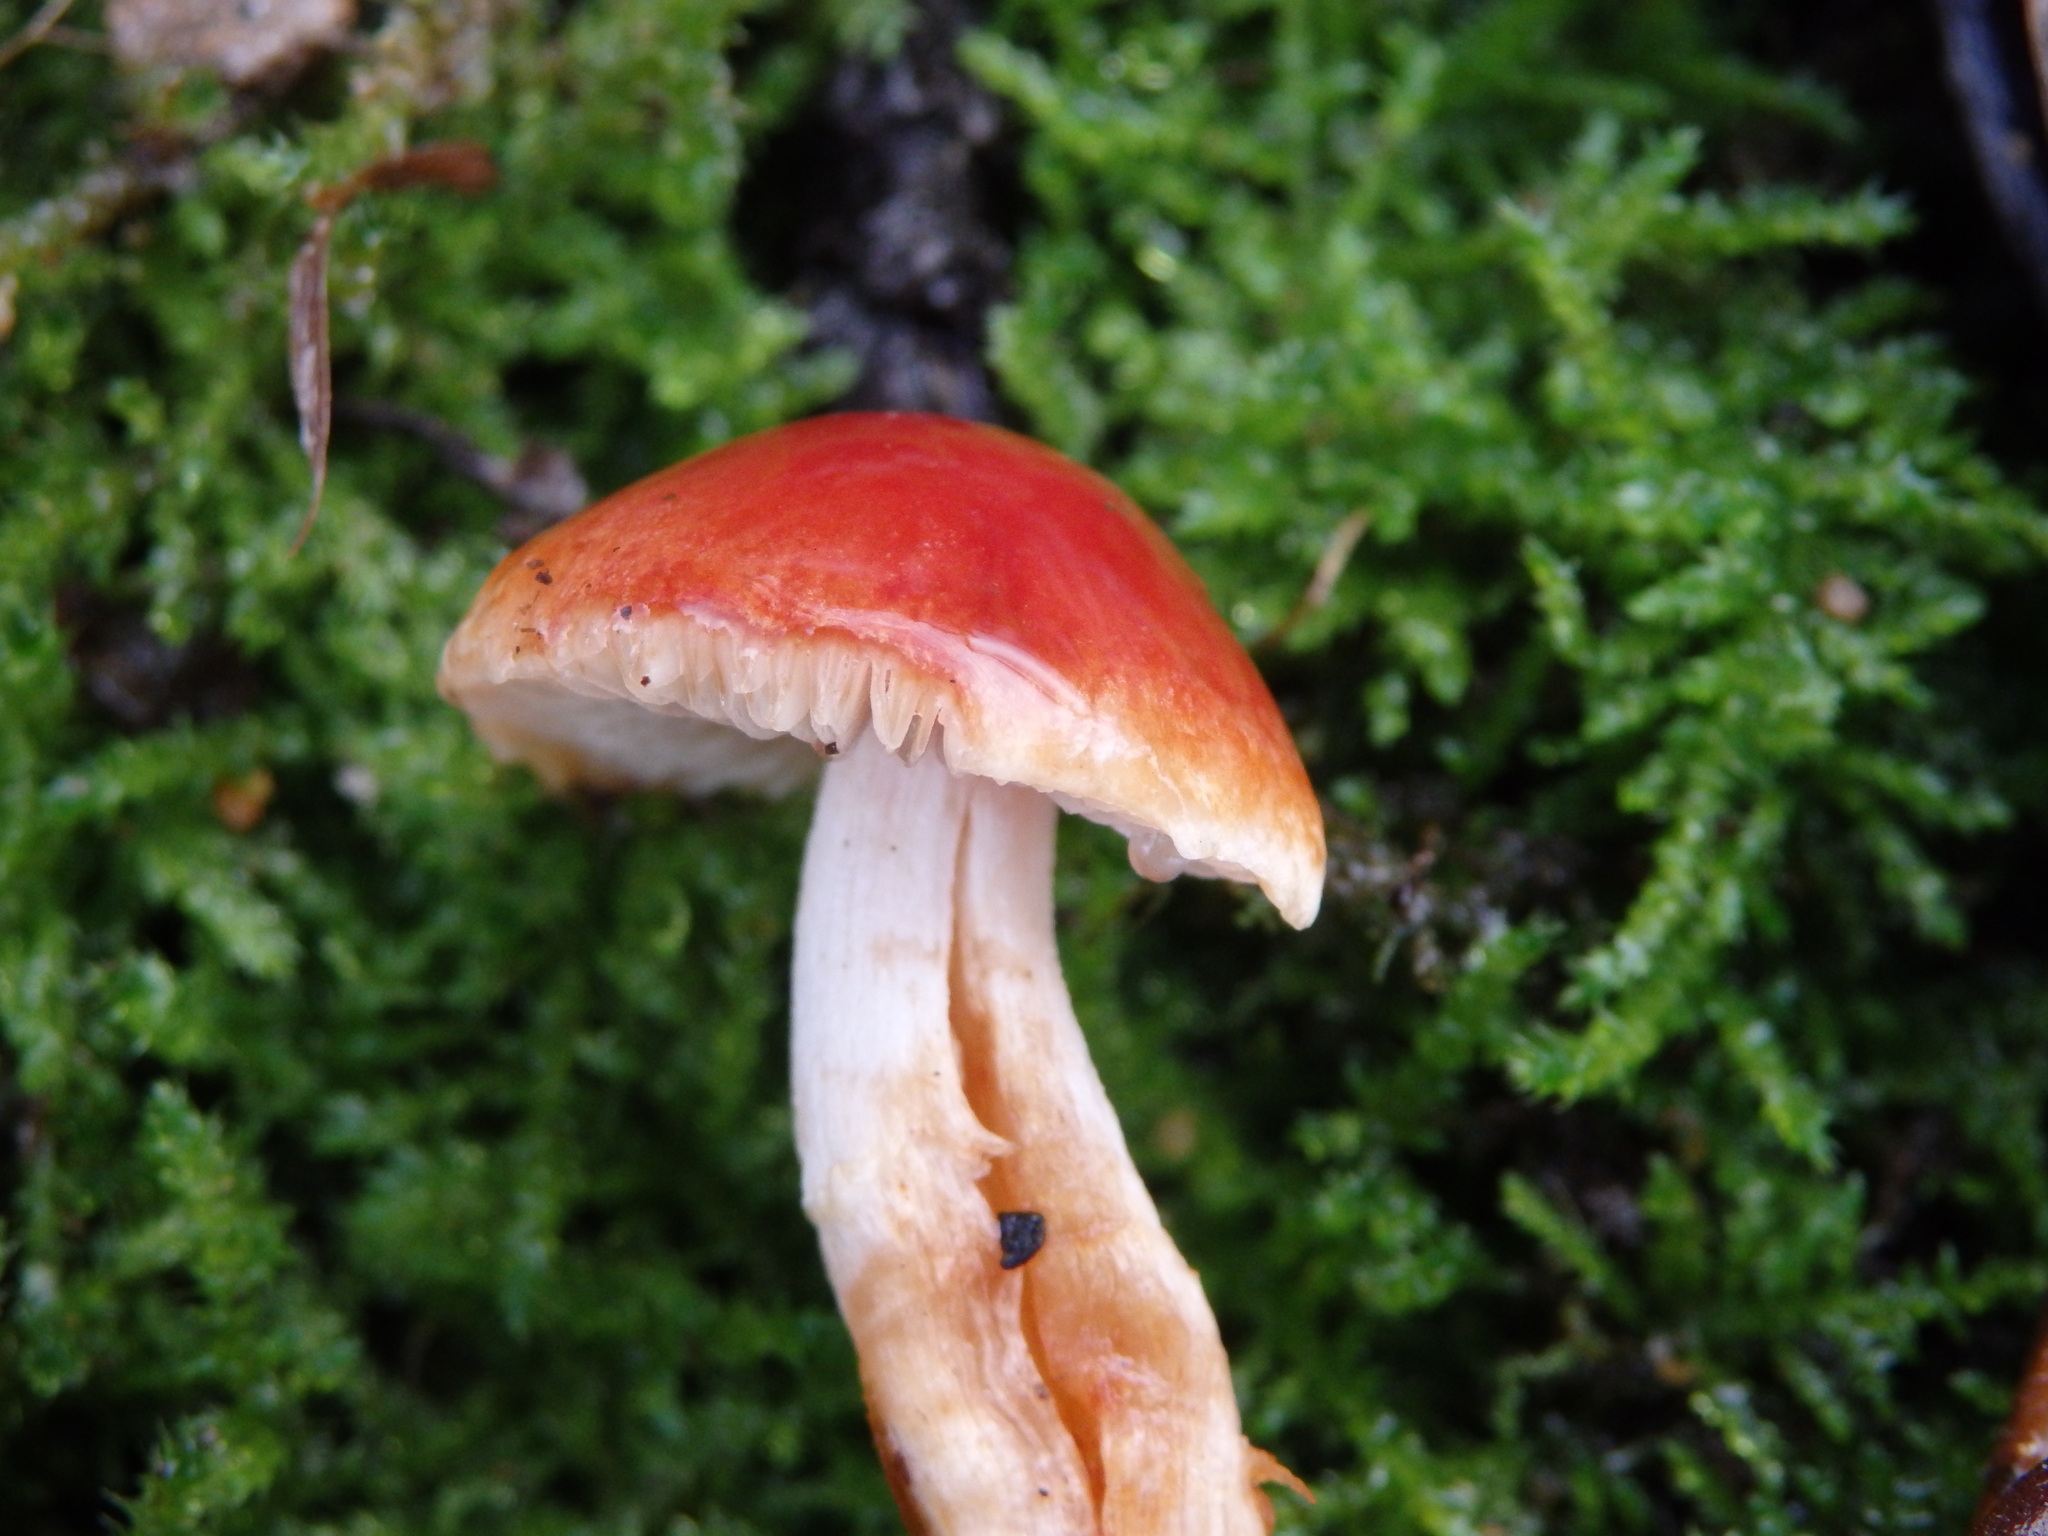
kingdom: Fungi
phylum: Basidiomycota
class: Agaricomycetes
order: Agaricales
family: Strophariaceae
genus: Leratiomyces
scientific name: Leratiomyces ceres
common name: Redlead roundhead
